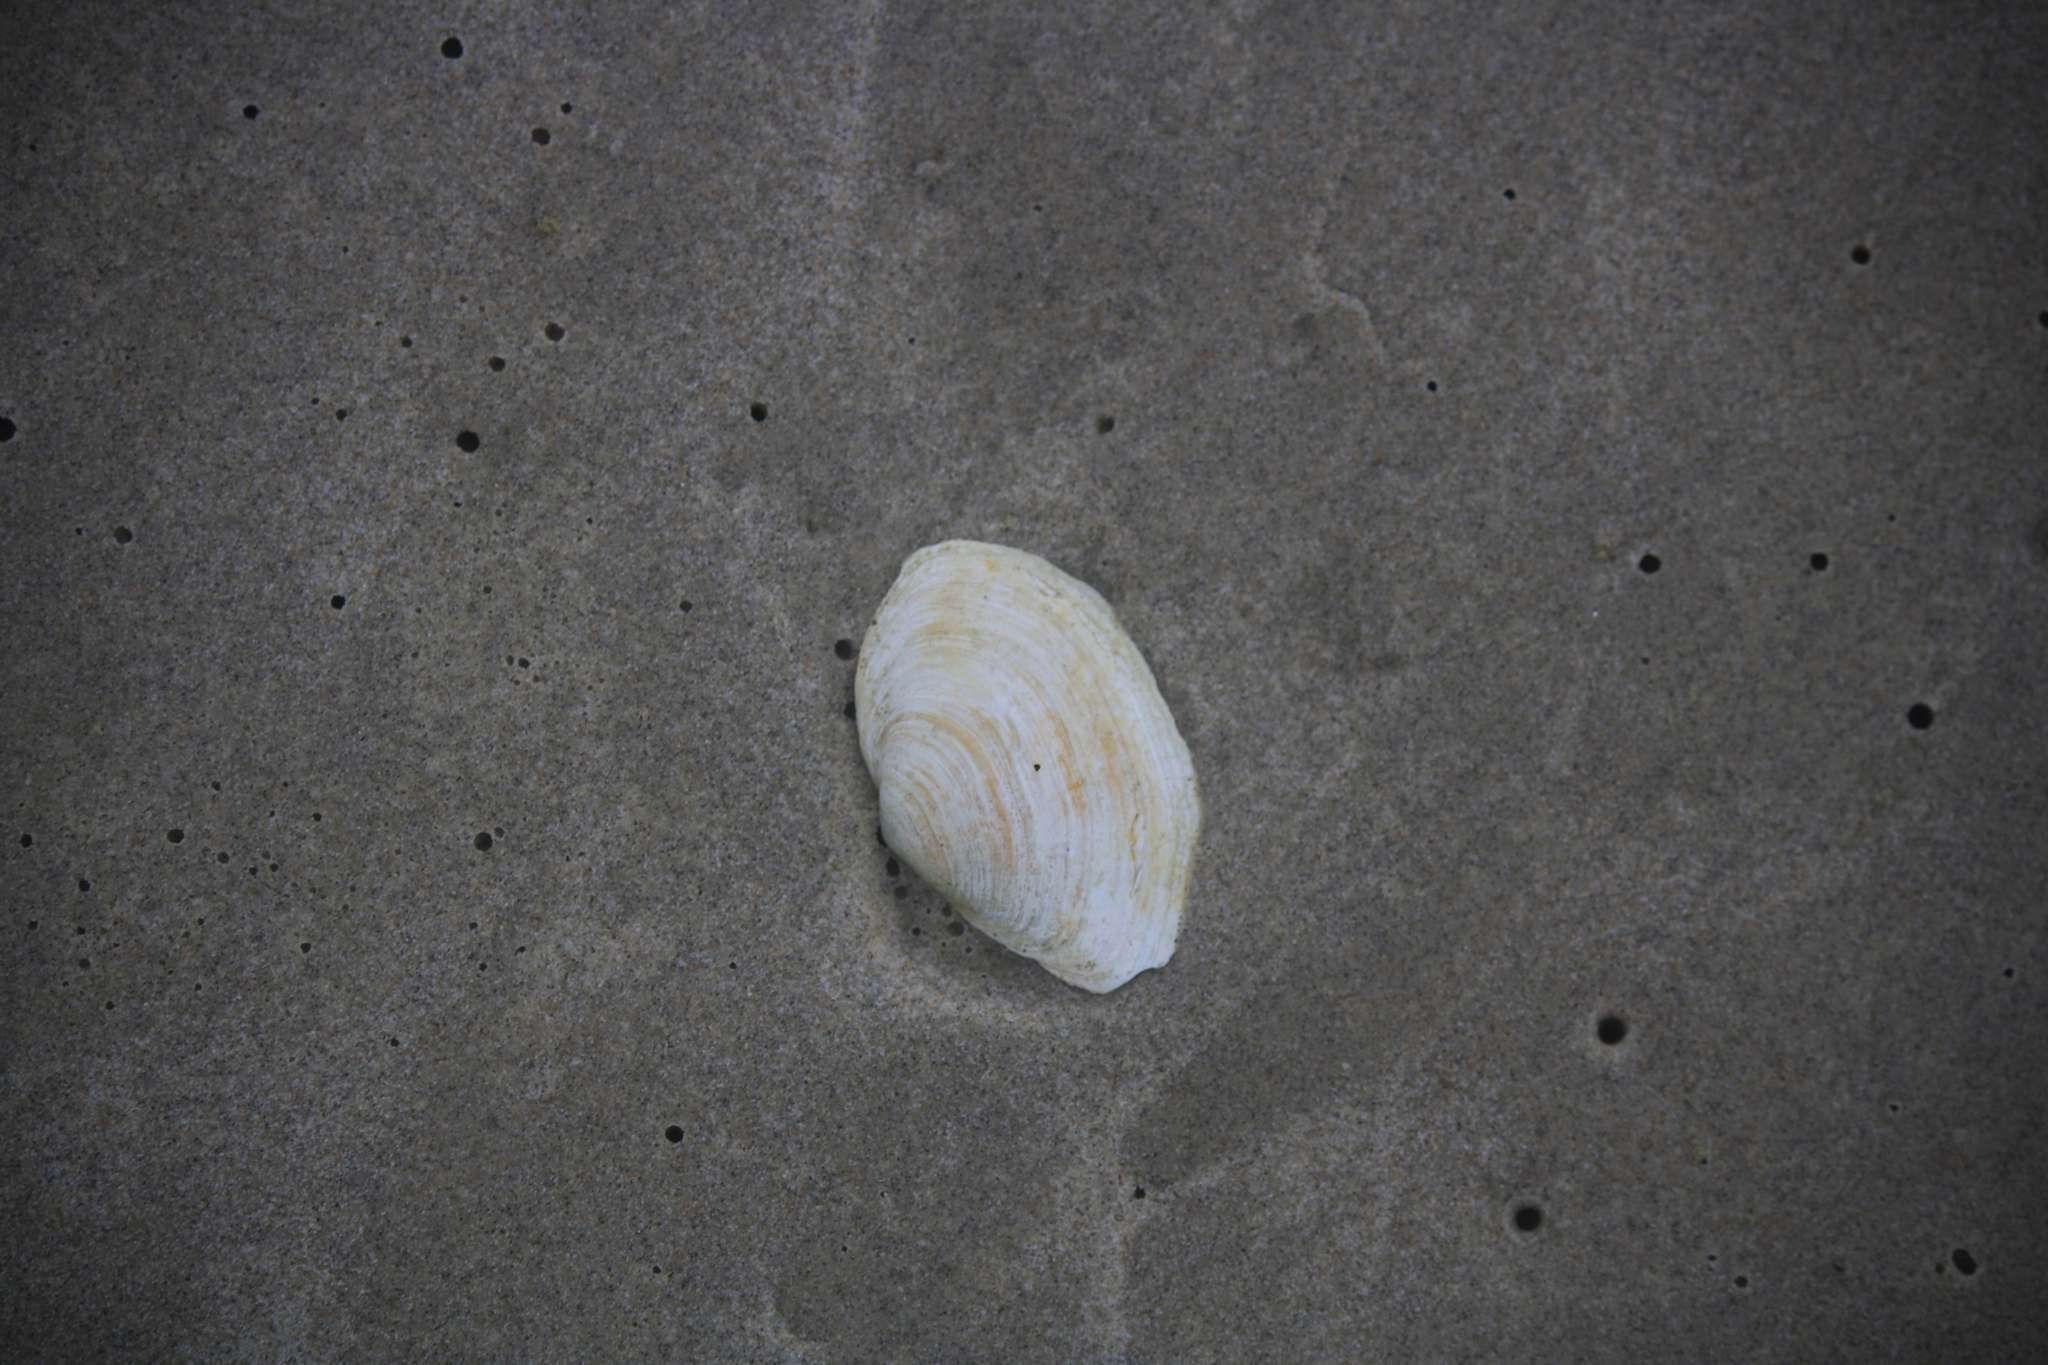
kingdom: Animalia
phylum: Mollusca
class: Bivalvia
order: Myida
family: Myidae
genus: Mya
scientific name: Mya arenaria
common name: Soft-shelled clam
